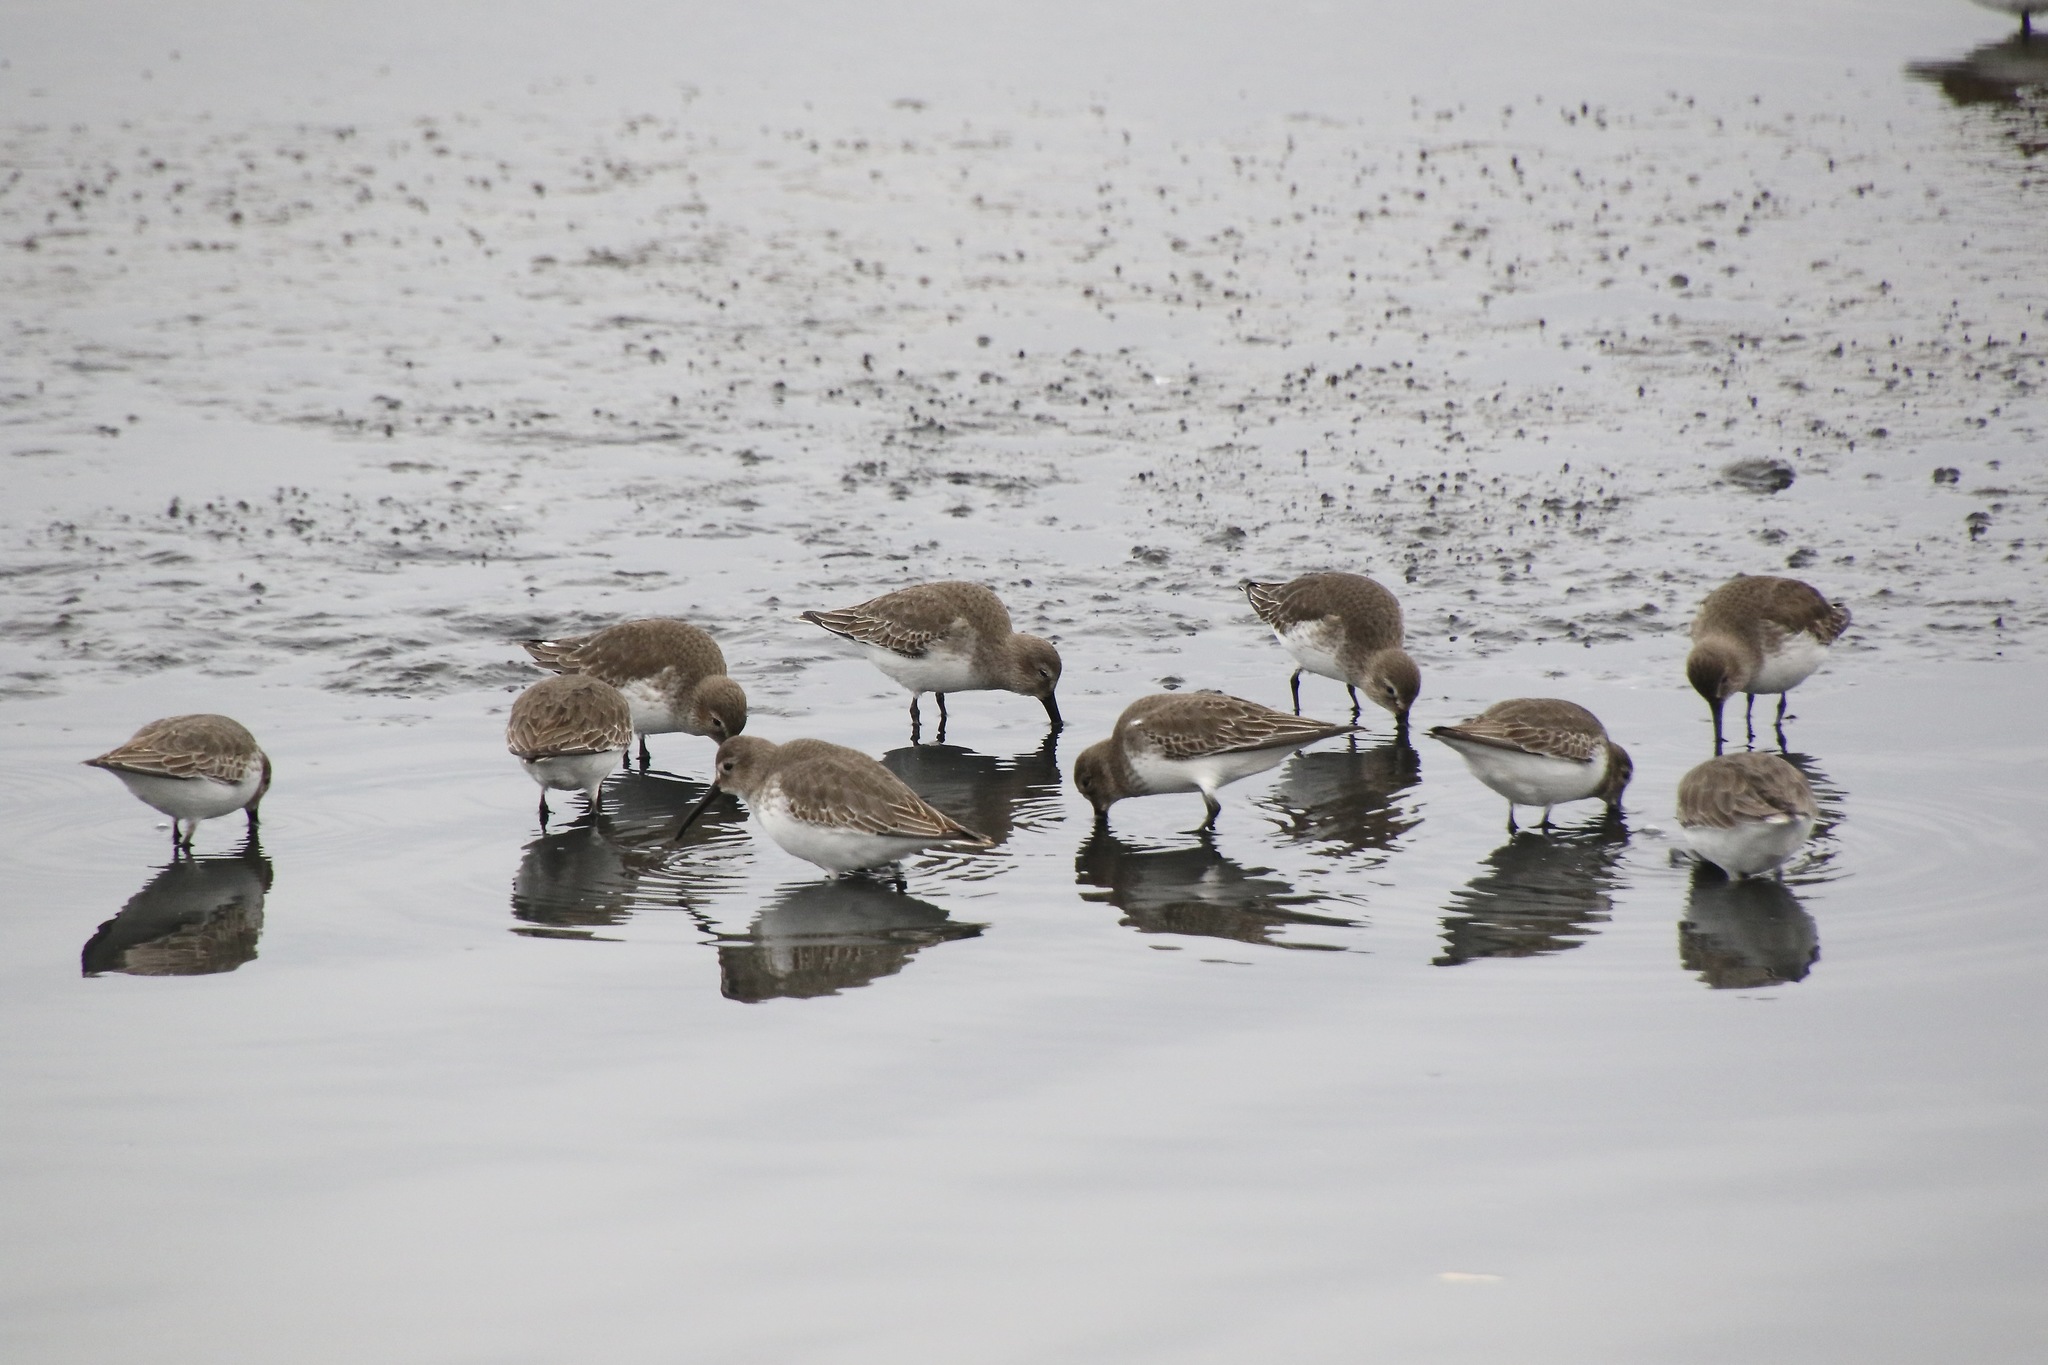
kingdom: Animalia
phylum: Chordata
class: Aves
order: Charadriiformes
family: Scolopacidae
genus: Calidris
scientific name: Calidris alpina
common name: Dunlin
